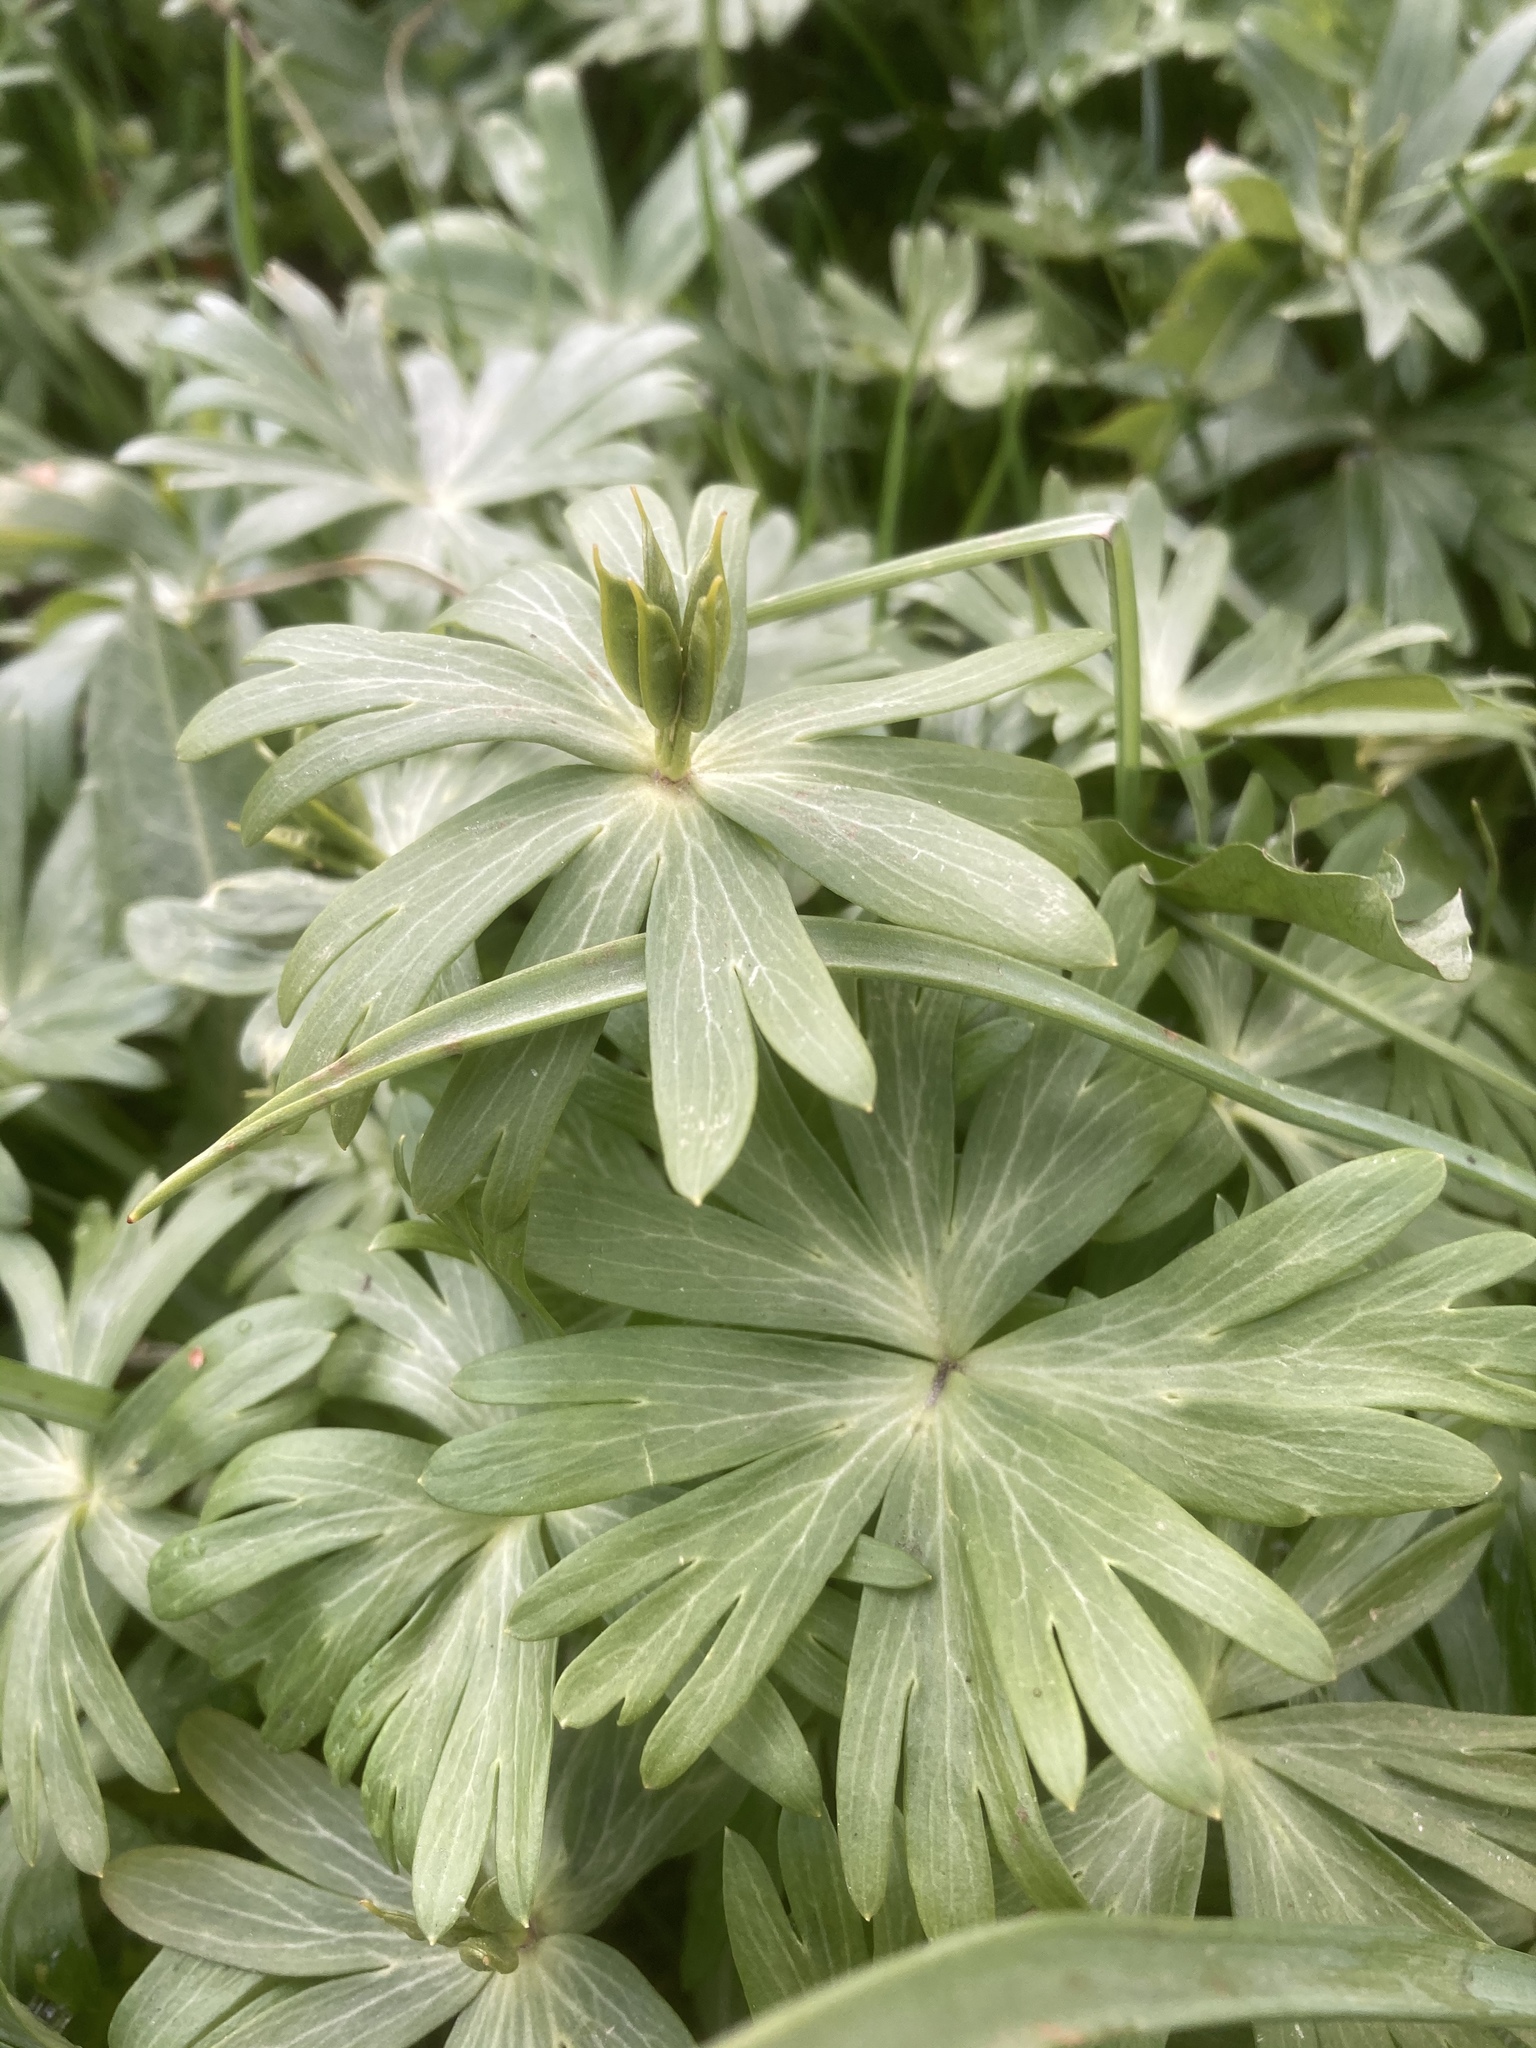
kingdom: Plantae
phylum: Tracheophyta
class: Magnoliopsida
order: Ranunculales
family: Ranunculaceae
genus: Eranthis
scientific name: Eranthis hyemalis
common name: Winter aconite
